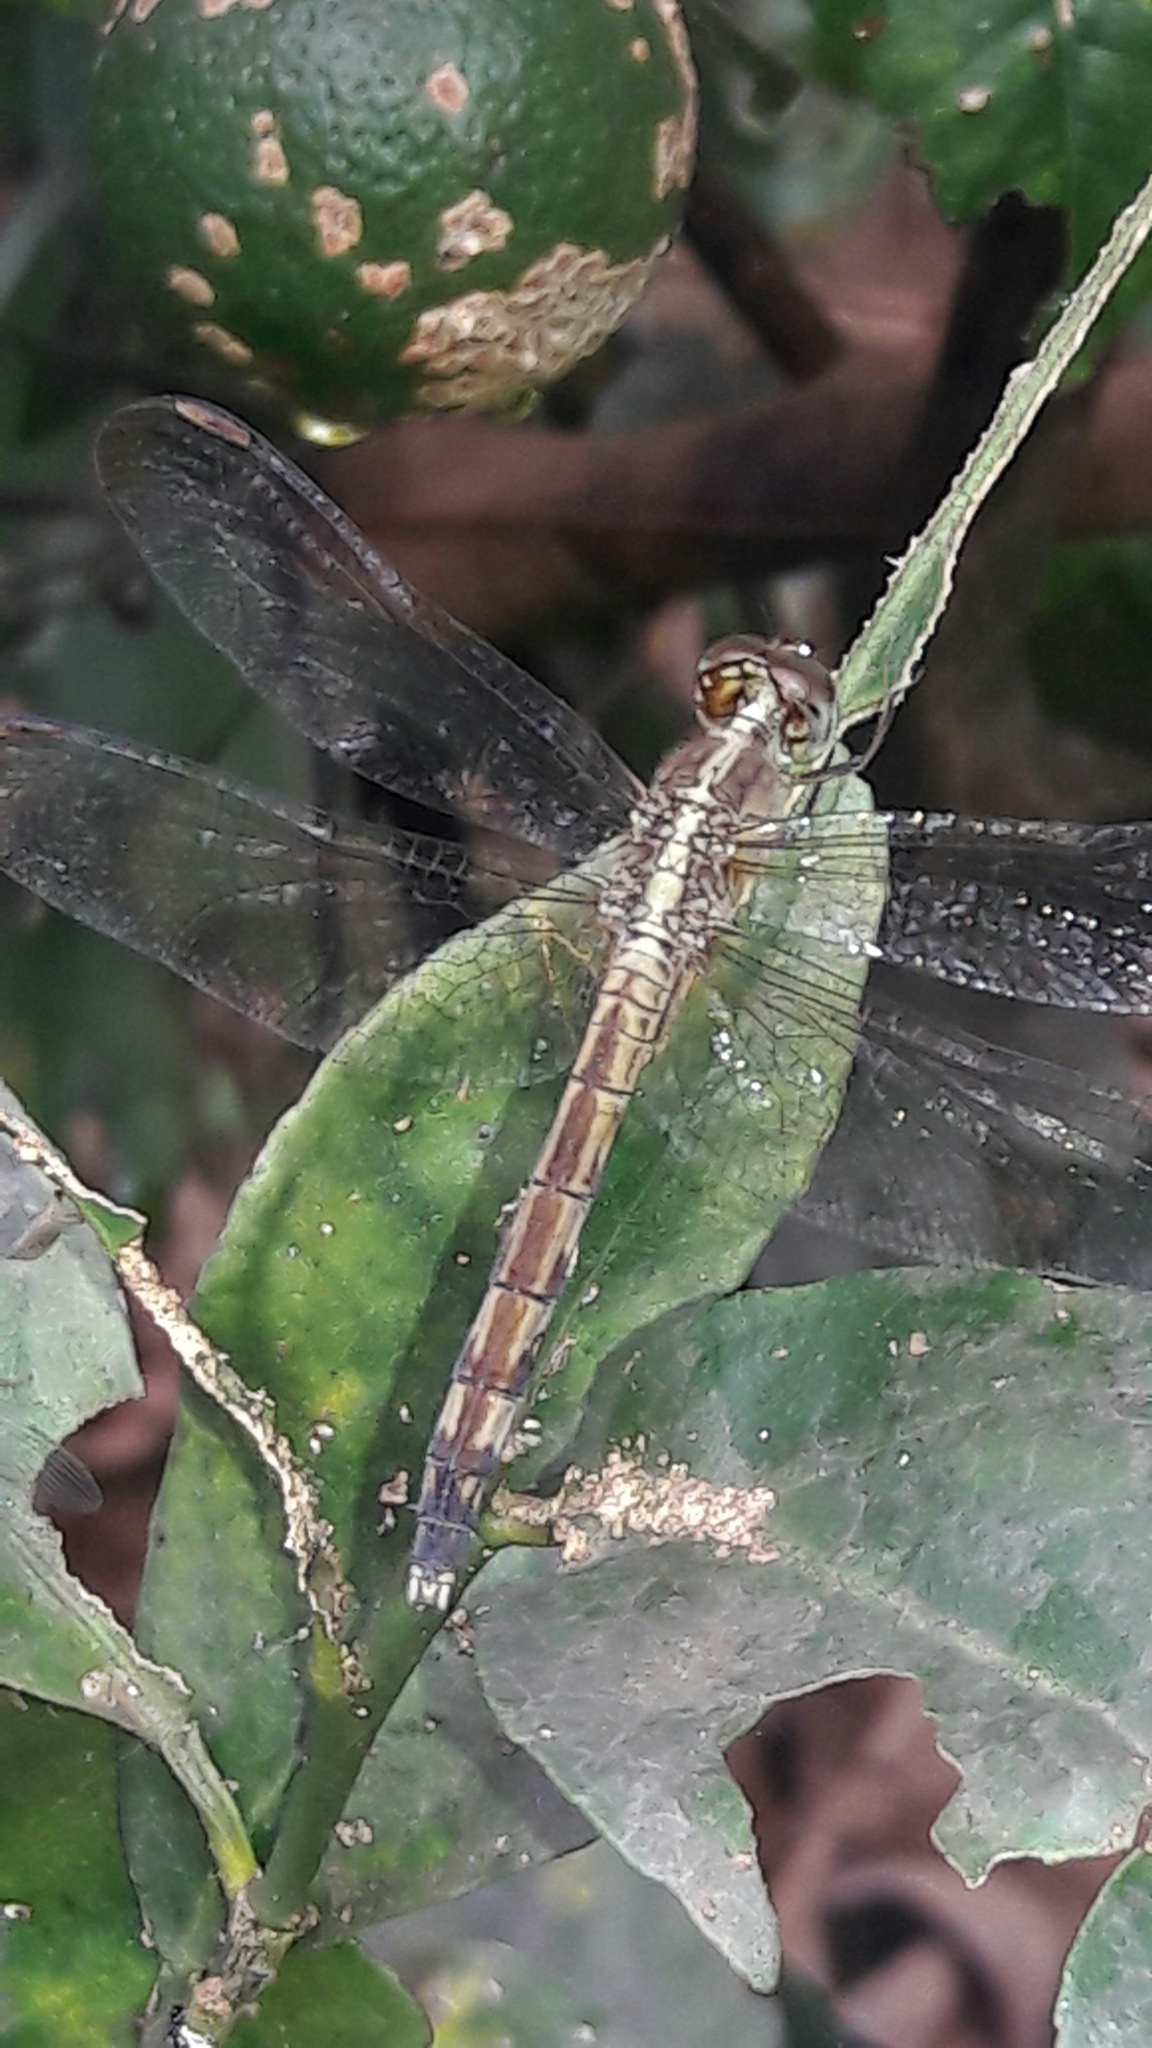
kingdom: Animalia
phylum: Arthropoda
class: Insecta
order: Odonata
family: Libellulidae
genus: Erythrodiplax
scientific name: Erythrodiplax umbrata
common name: Band-winged dragonlet
